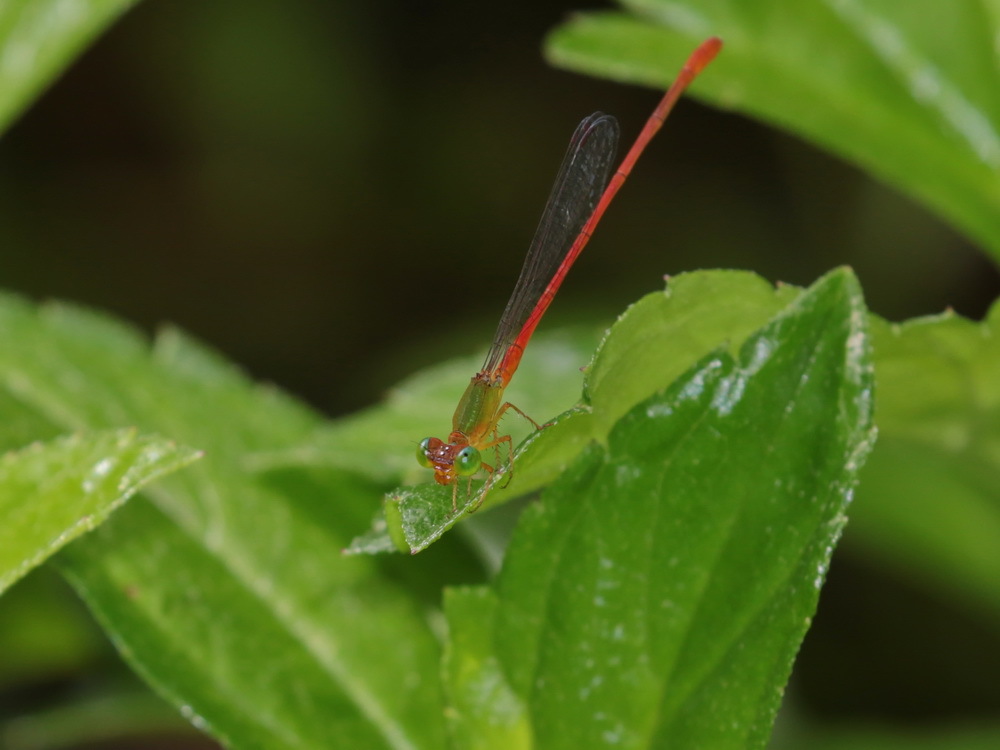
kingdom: Animalia
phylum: Arthropoda
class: Insecta
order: Odonata
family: Coenagrionidae
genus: Ceriagrion
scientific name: Ceriagrion auranticum
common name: Orange-tailed sprite
